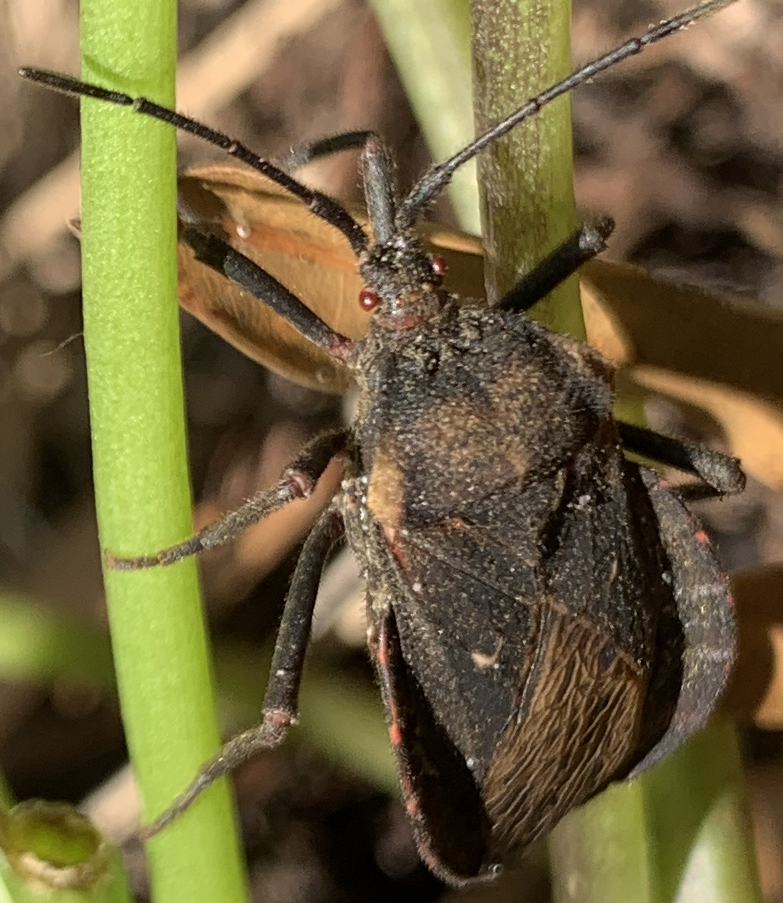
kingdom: Animalia
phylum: Arthropoda
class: Insecta
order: Hemiptera
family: Coreidae
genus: Spartocera
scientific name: Spartocera batatas
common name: Giant sweetpotato bug
